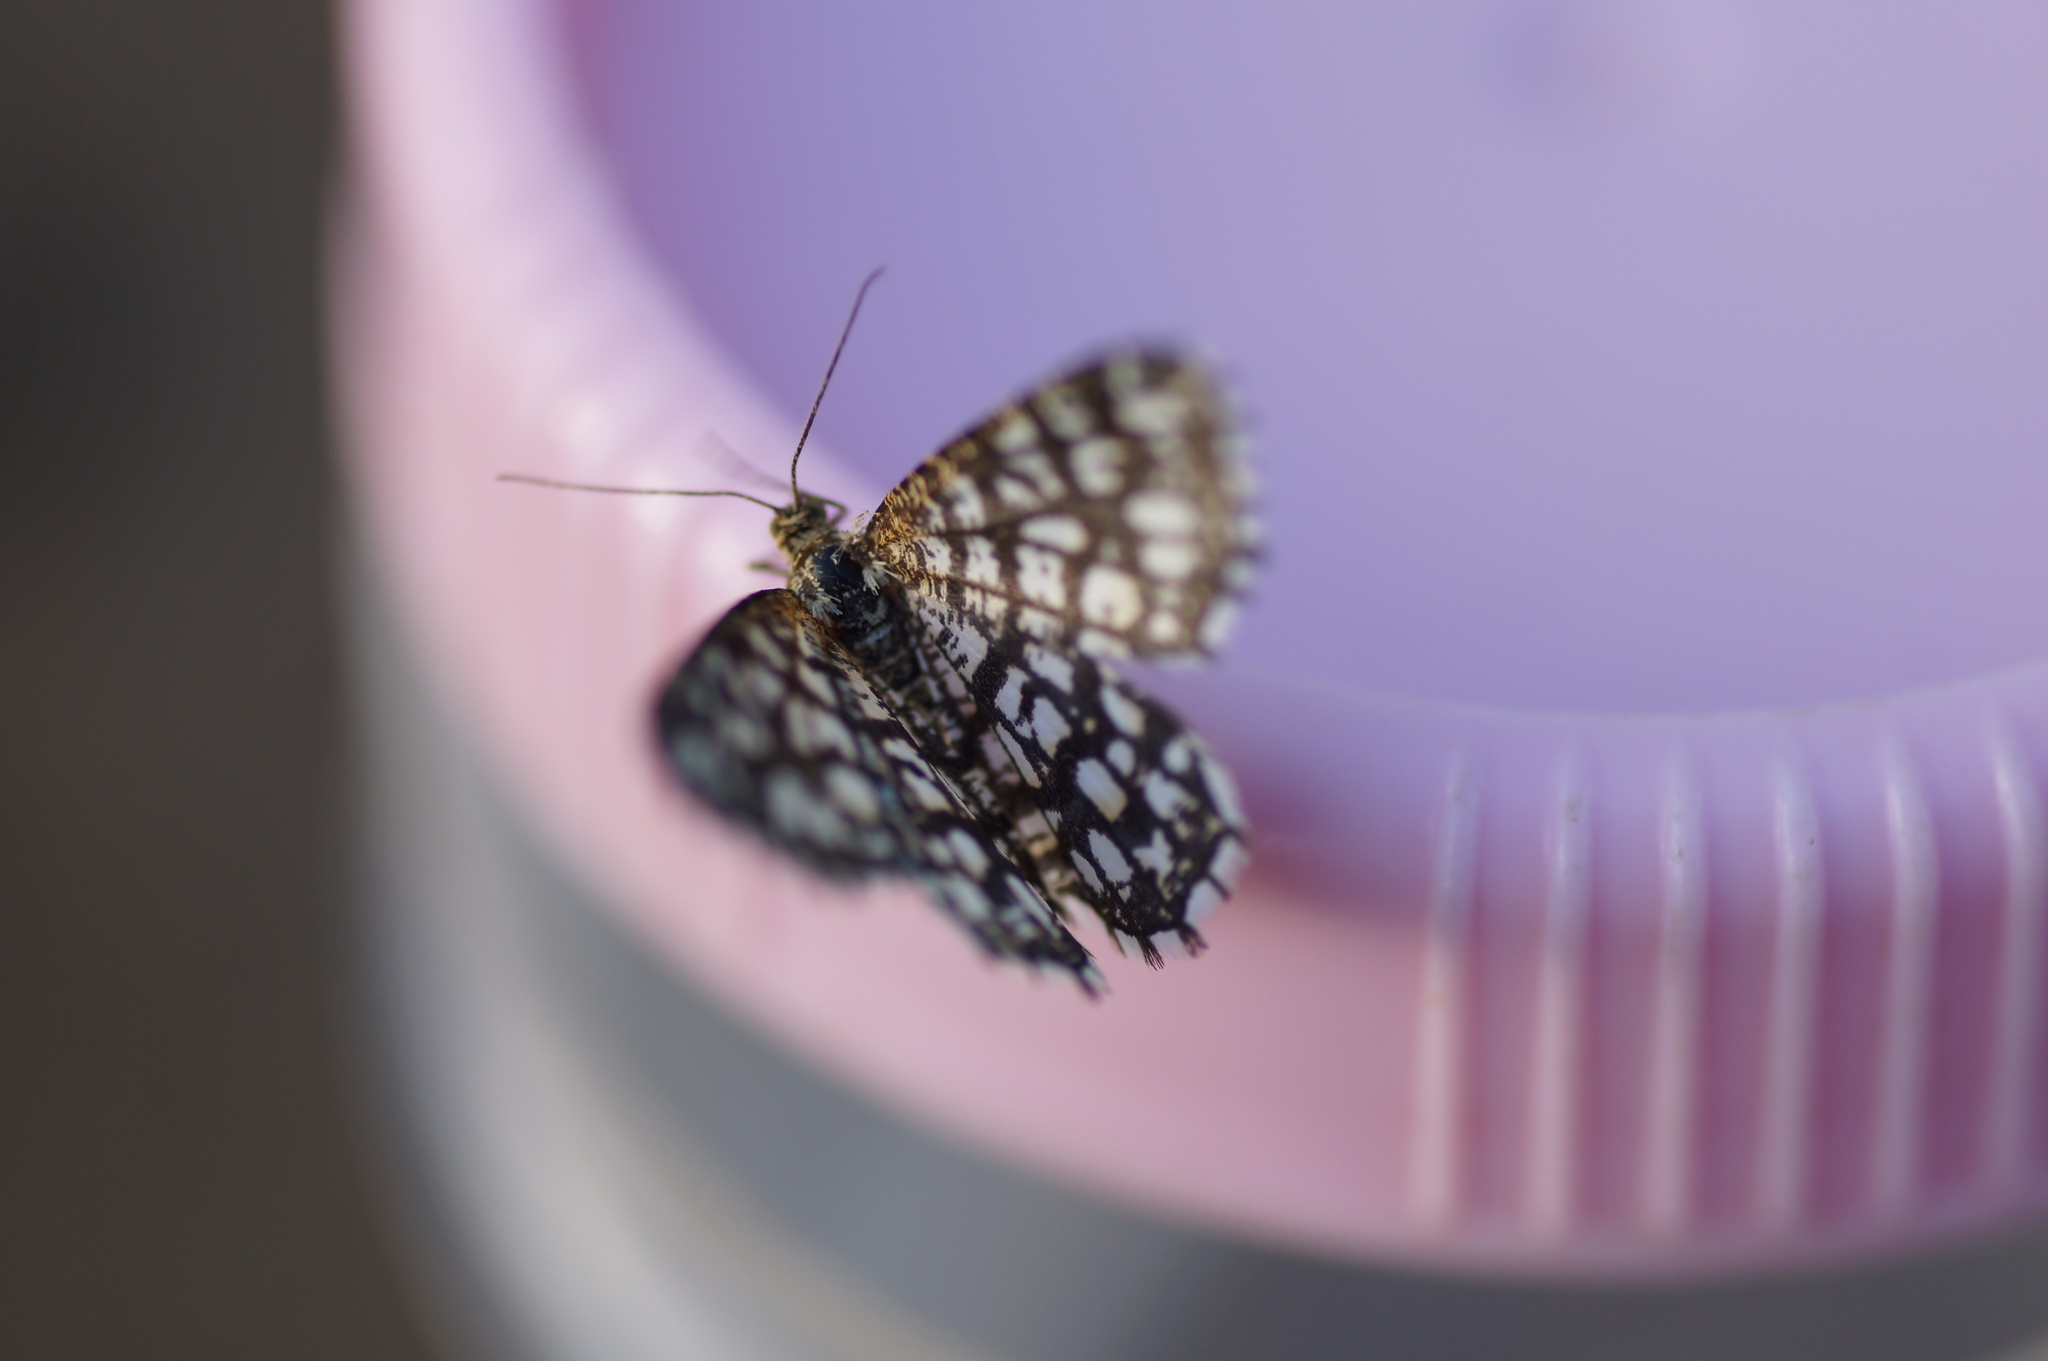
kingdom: Animalia
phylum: Arthropoda
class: Insecta
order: Lepidoptera
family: Geometridae
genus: Chiasmia
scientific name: Chiasmia clathrata
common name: Latticed heath
